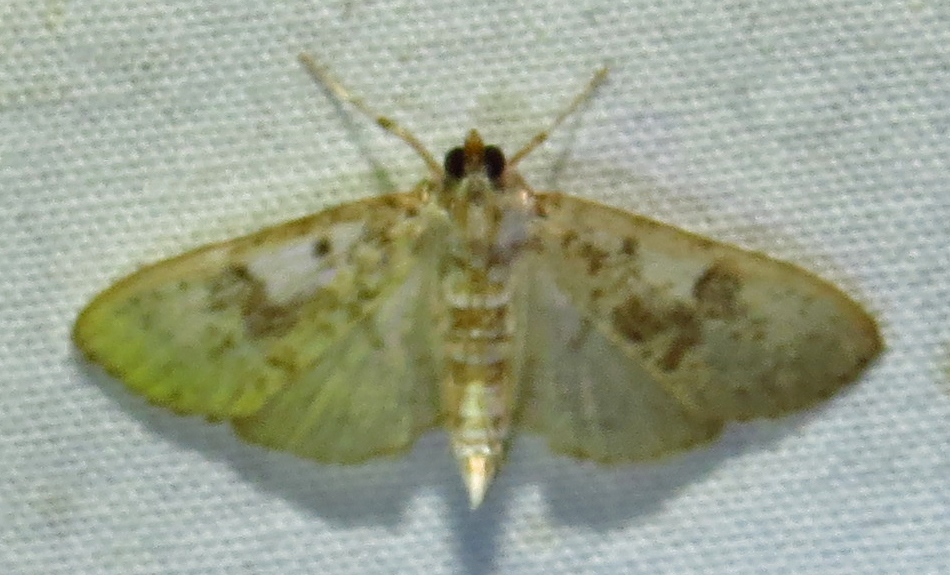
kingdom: Animalia
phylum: Arthropoda
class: Insecta
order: Lepidoptera
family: Crambidae
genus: Palpita
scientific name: Palpita freemanalis
